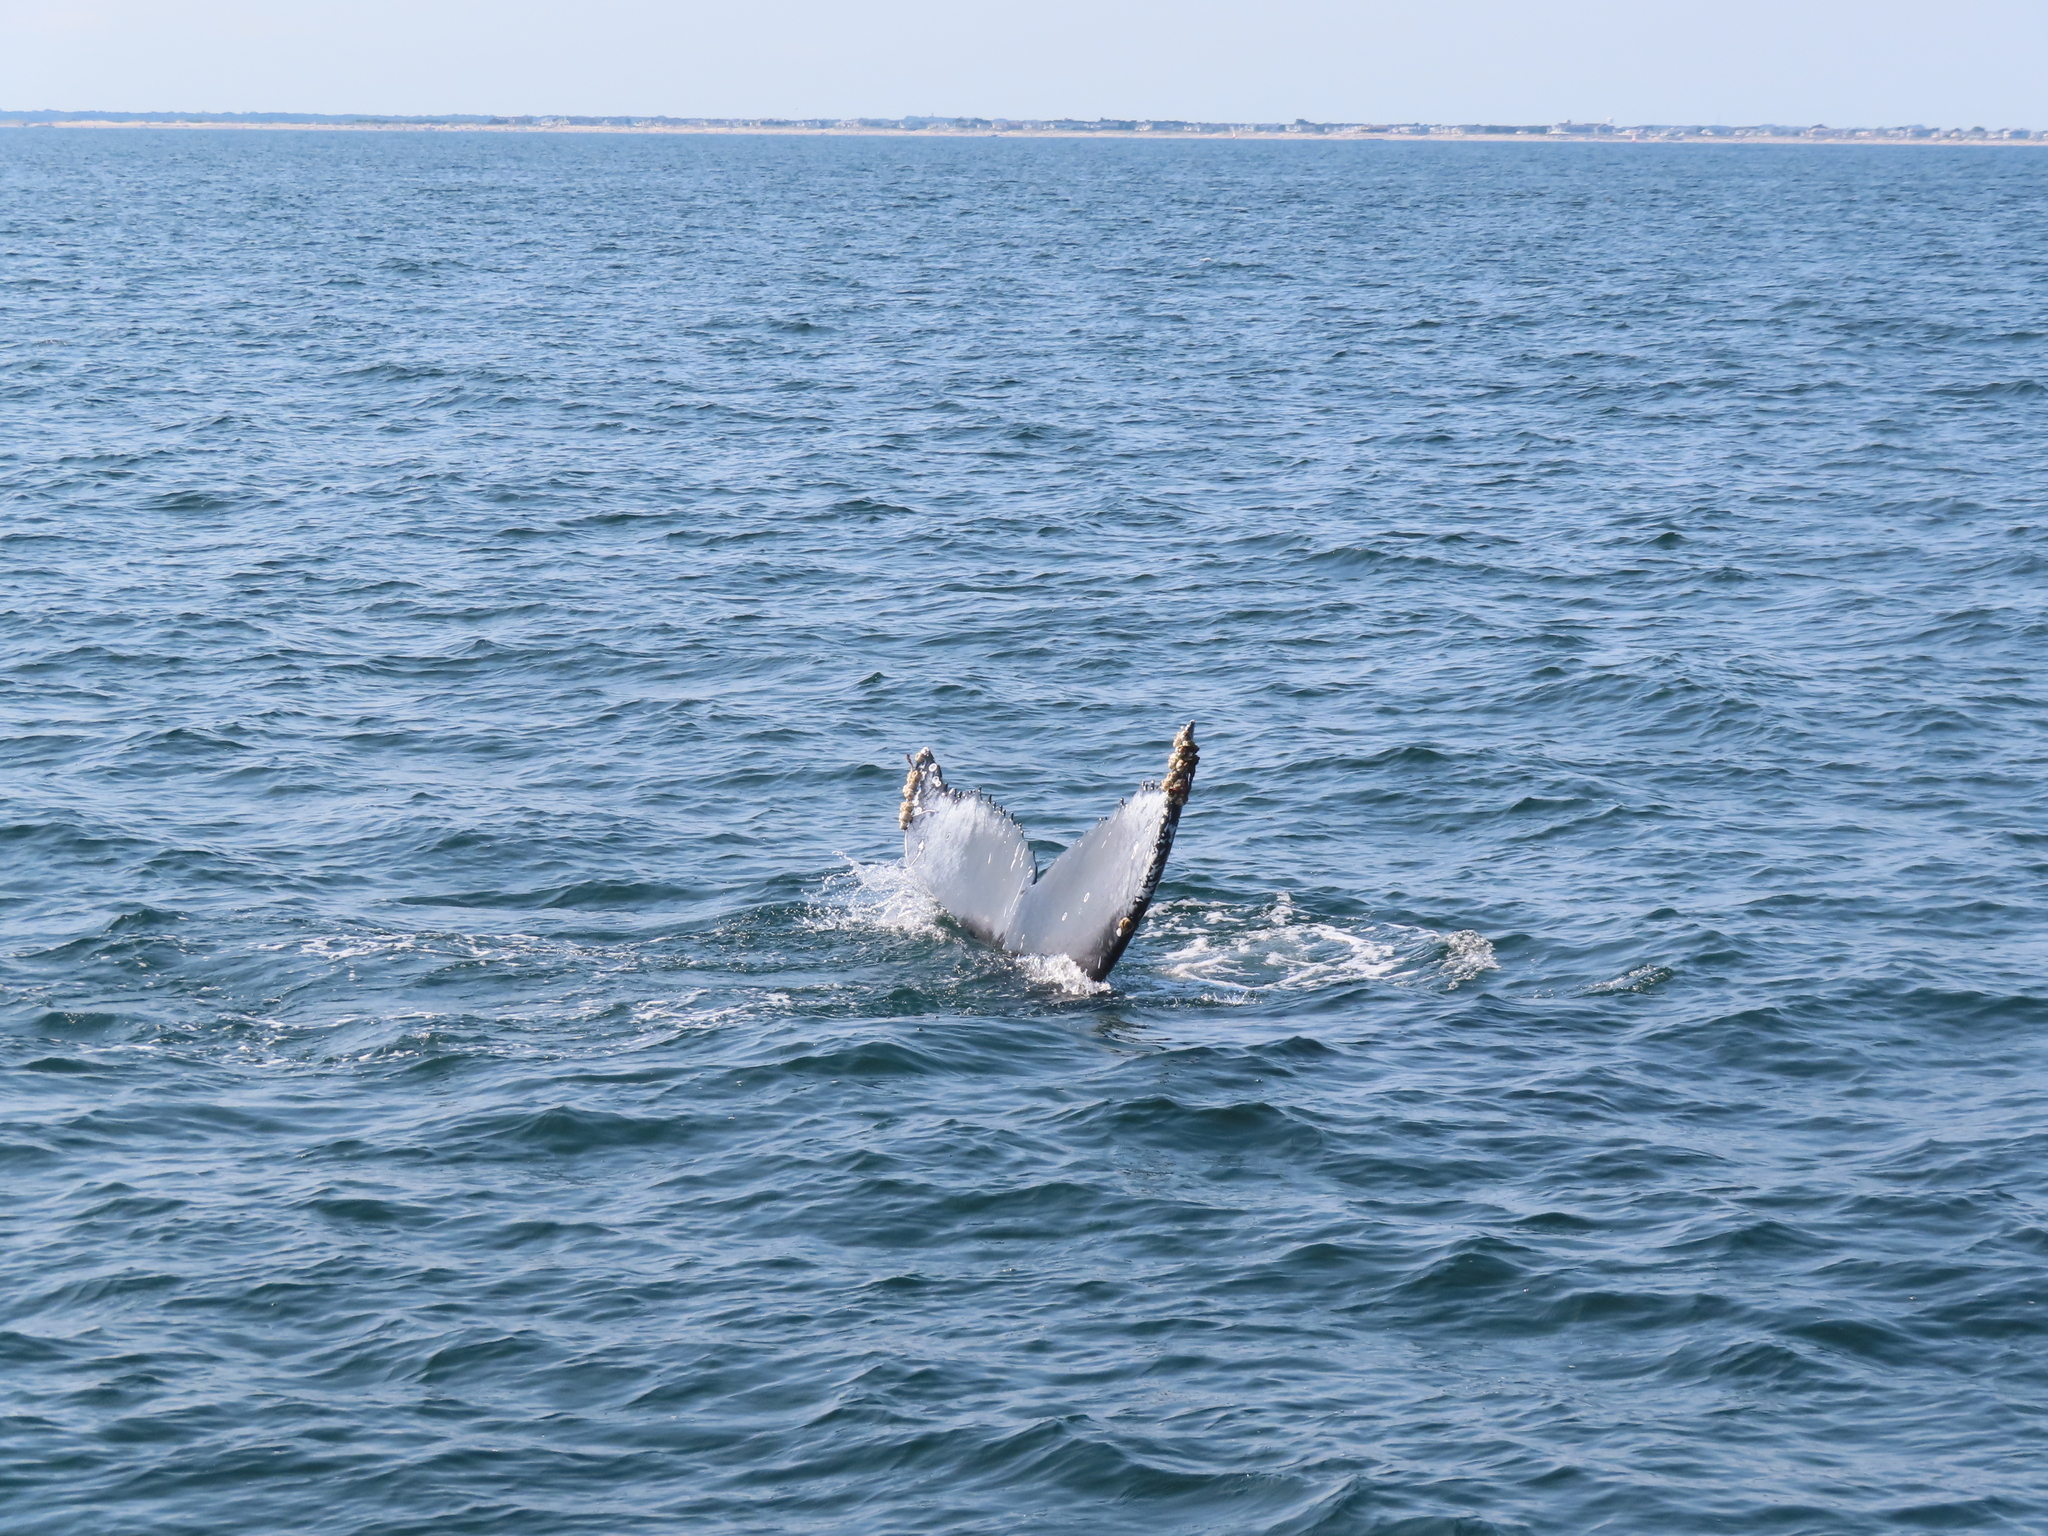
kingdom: Animalia
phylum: Chordata
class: Mammalia
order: Cetacea
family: Balaenopteridae
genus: Megaptera
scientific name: Megaptera novaeangliae
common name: Humpback whale
